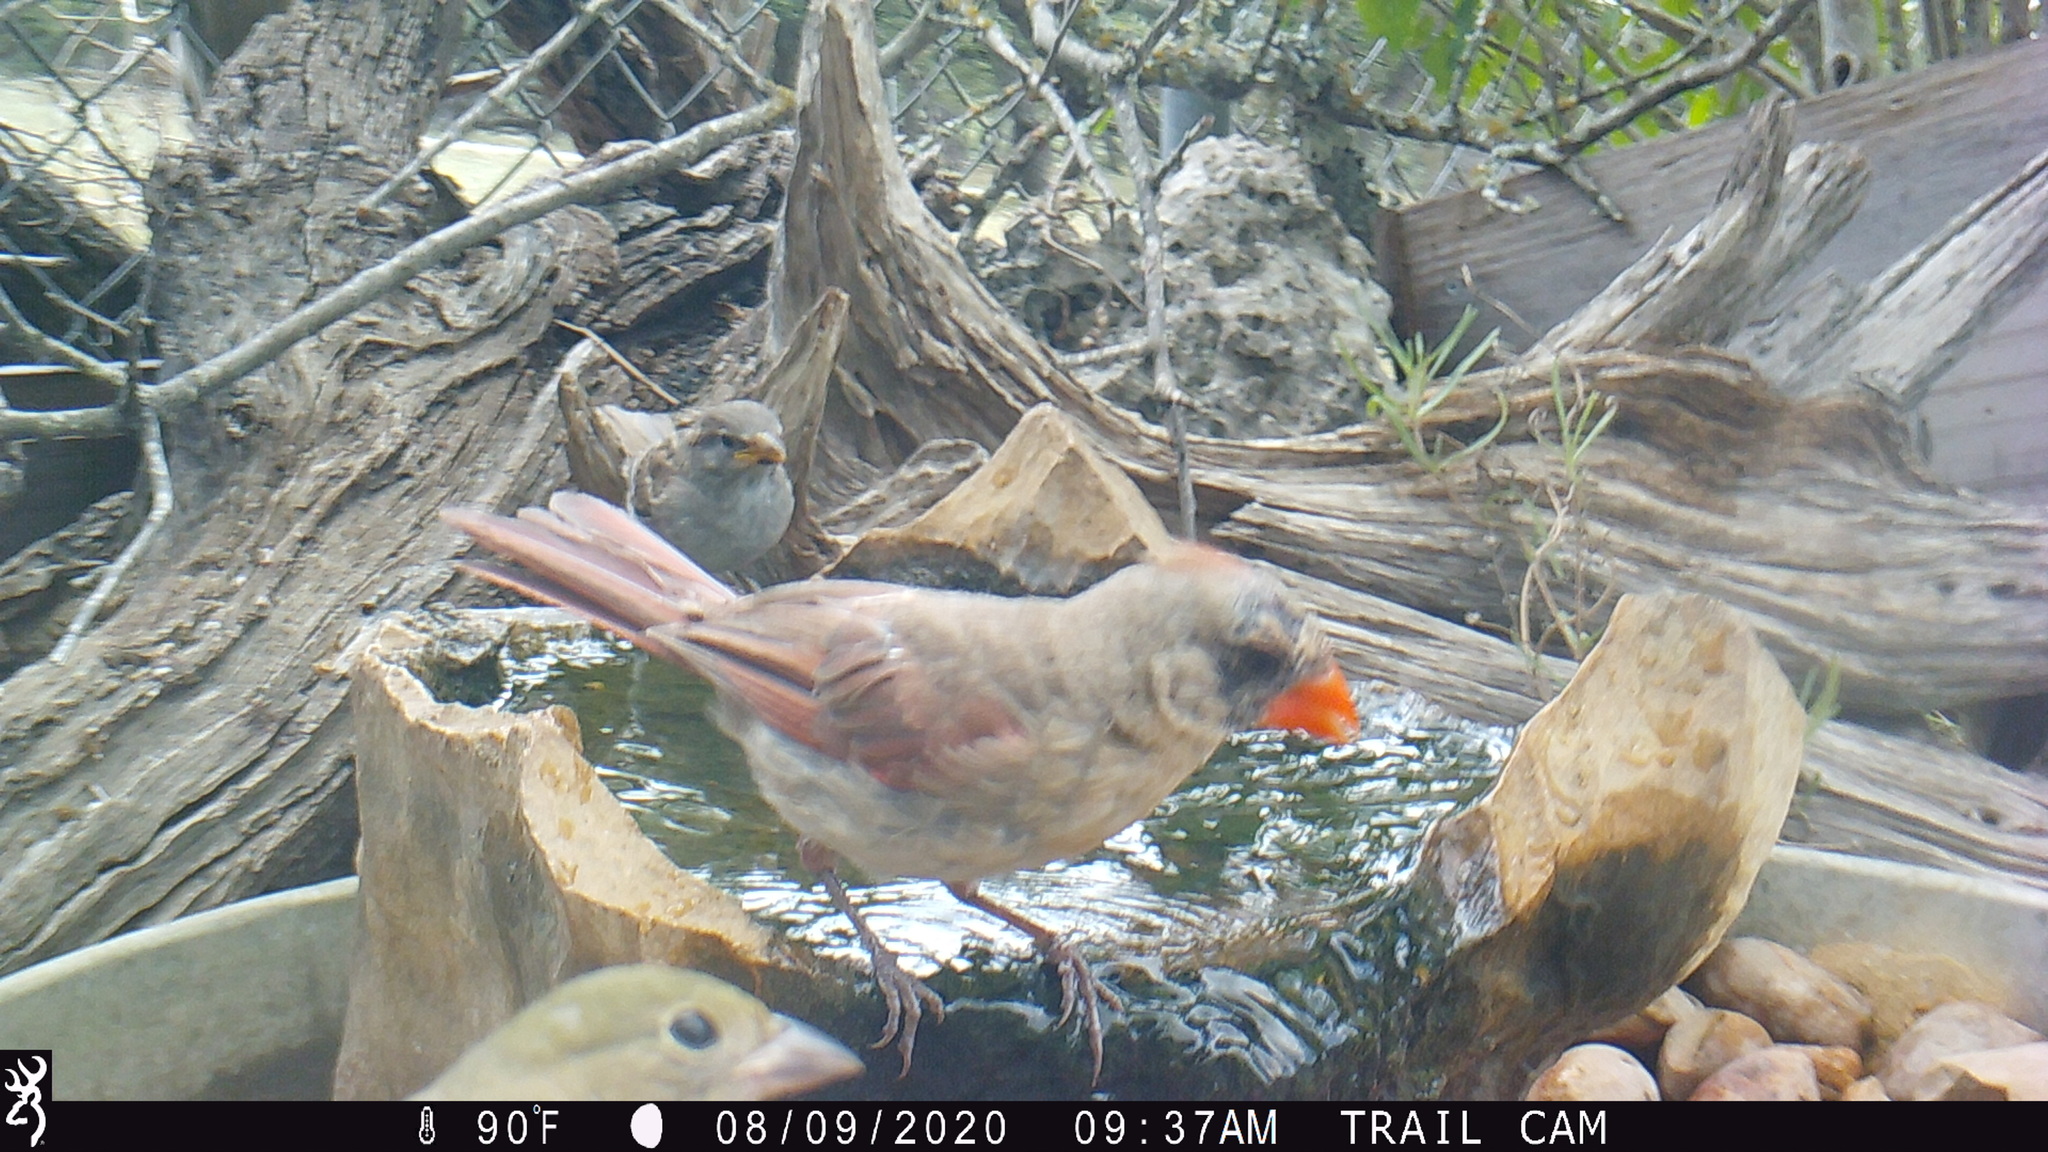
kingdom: Animalia
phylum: Chordata
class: Aves
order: Passeriformes
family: Cardinalidae
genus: Cardinalis
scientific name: Cardinalis cardinalis
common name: Northern cardinal
